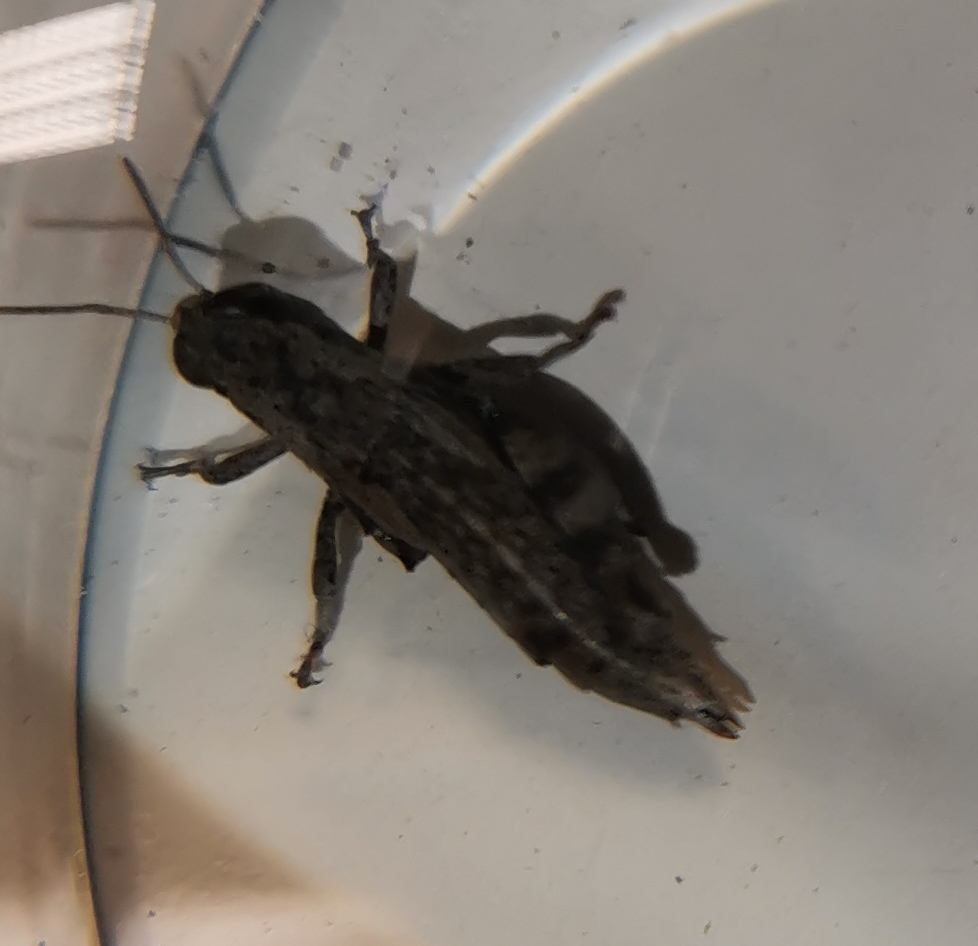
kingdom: Animalia
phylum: Arthropoda
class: Insecta
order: Orthoptera
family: Acrididae
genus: Pezotettix
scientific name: Pezotettix giornae
